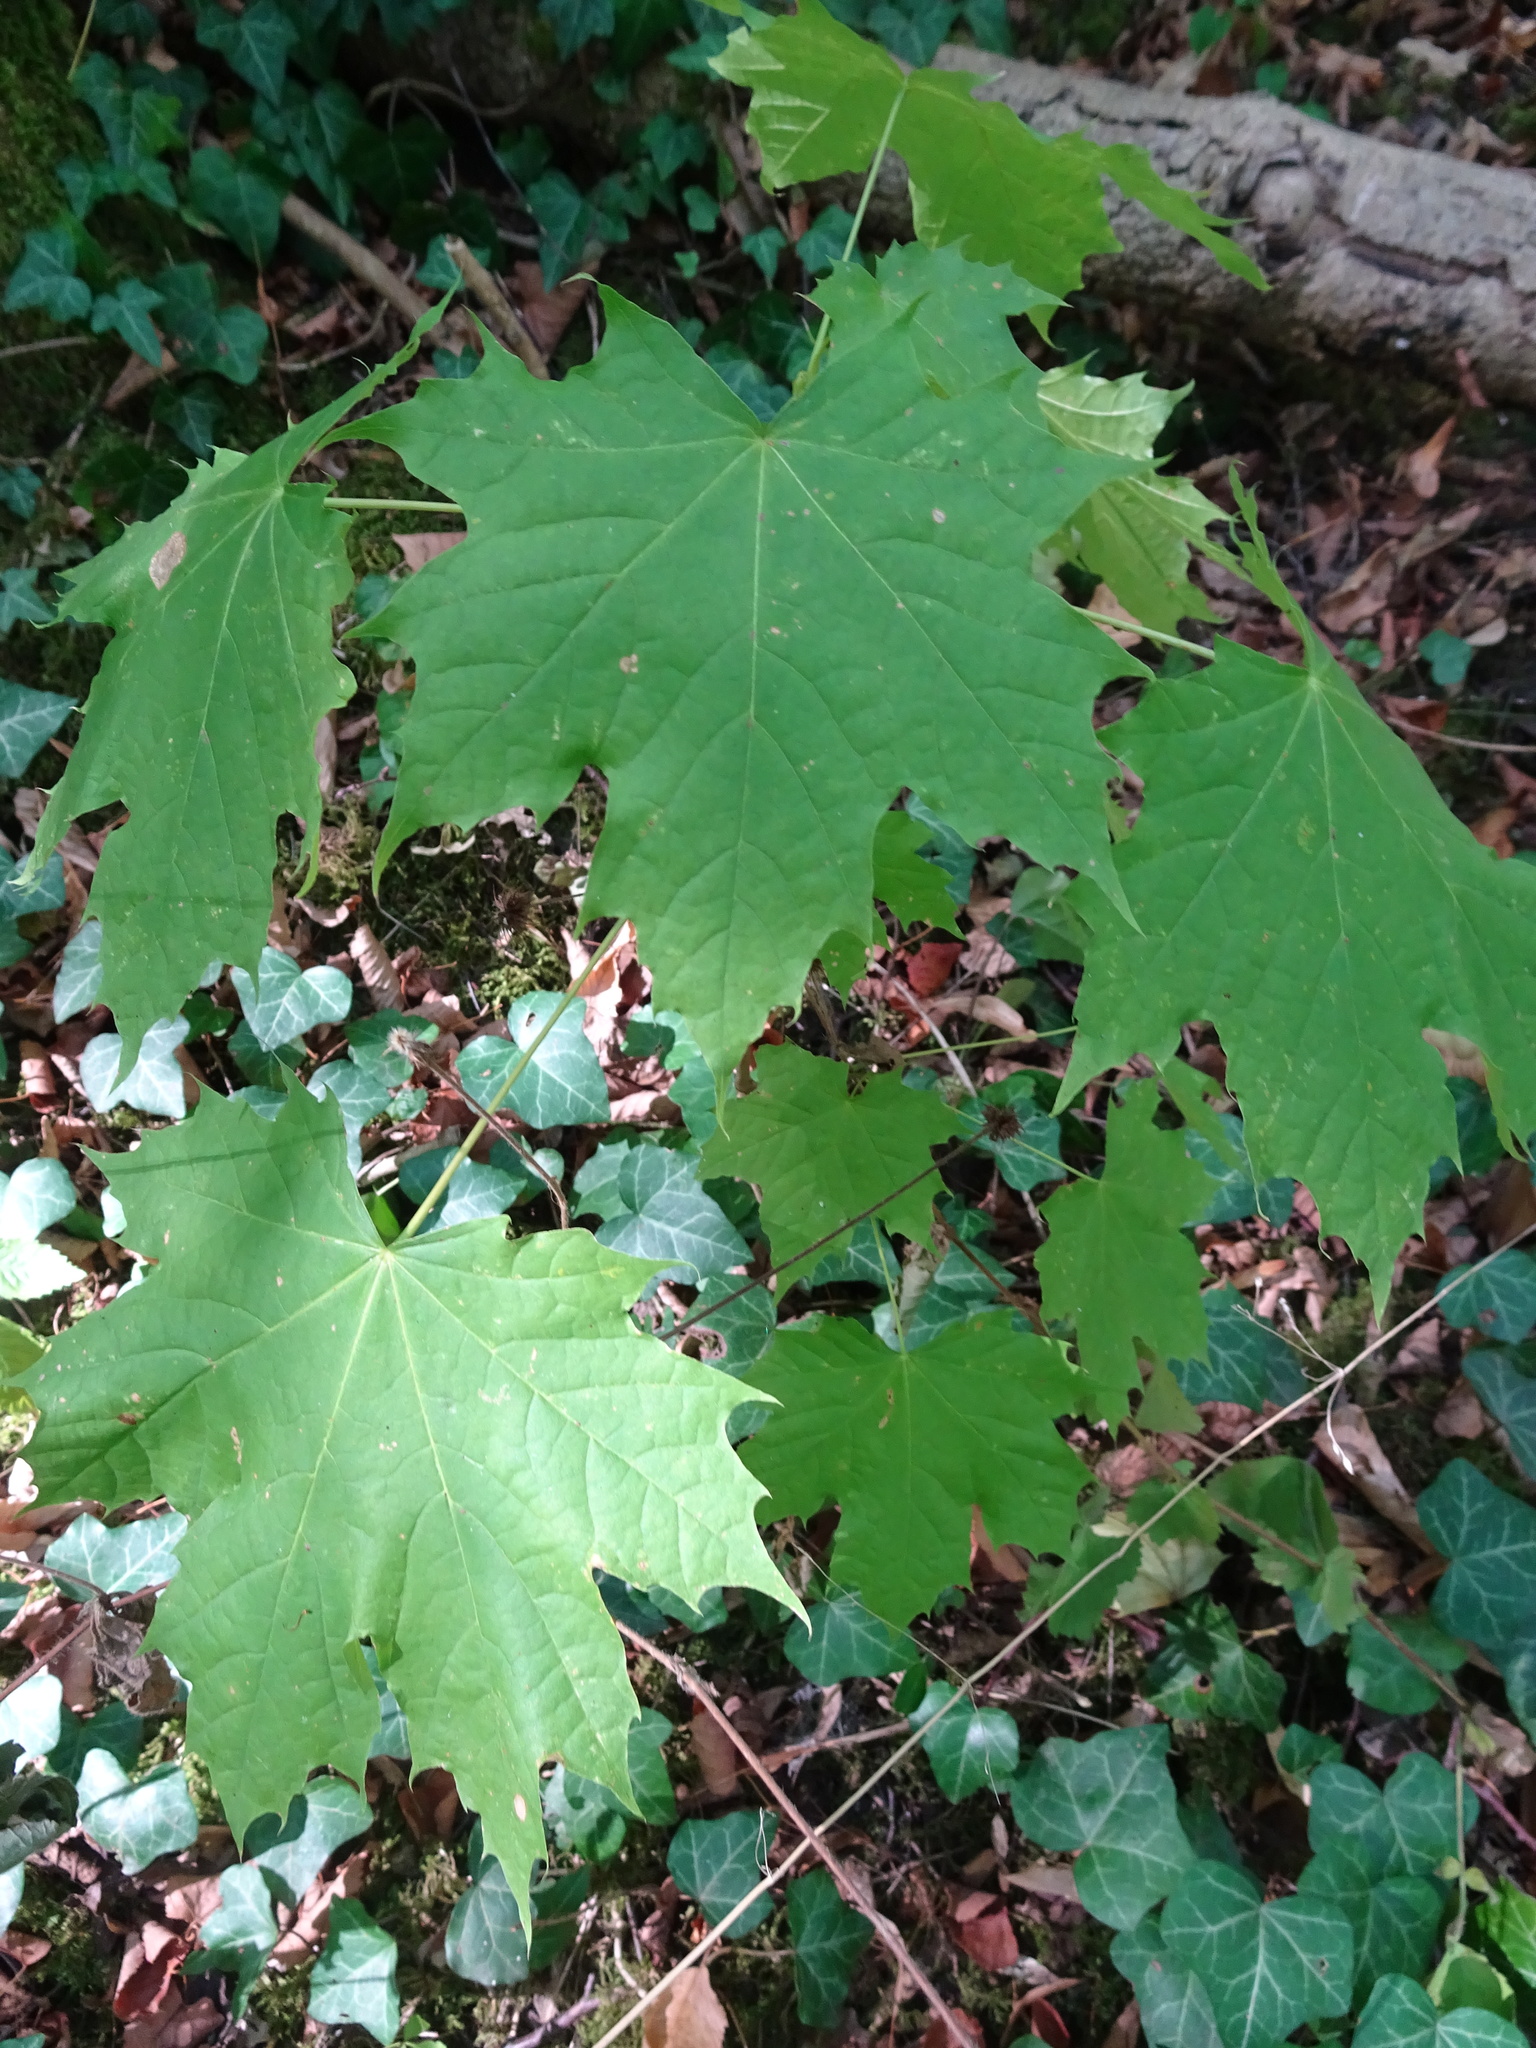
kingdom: Plantae
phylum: Tracheophyta
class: Magnoliopsida
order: Sapindales
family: Sapindaceae
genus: Acer
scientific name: Acer platanoides
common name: Norway maple
